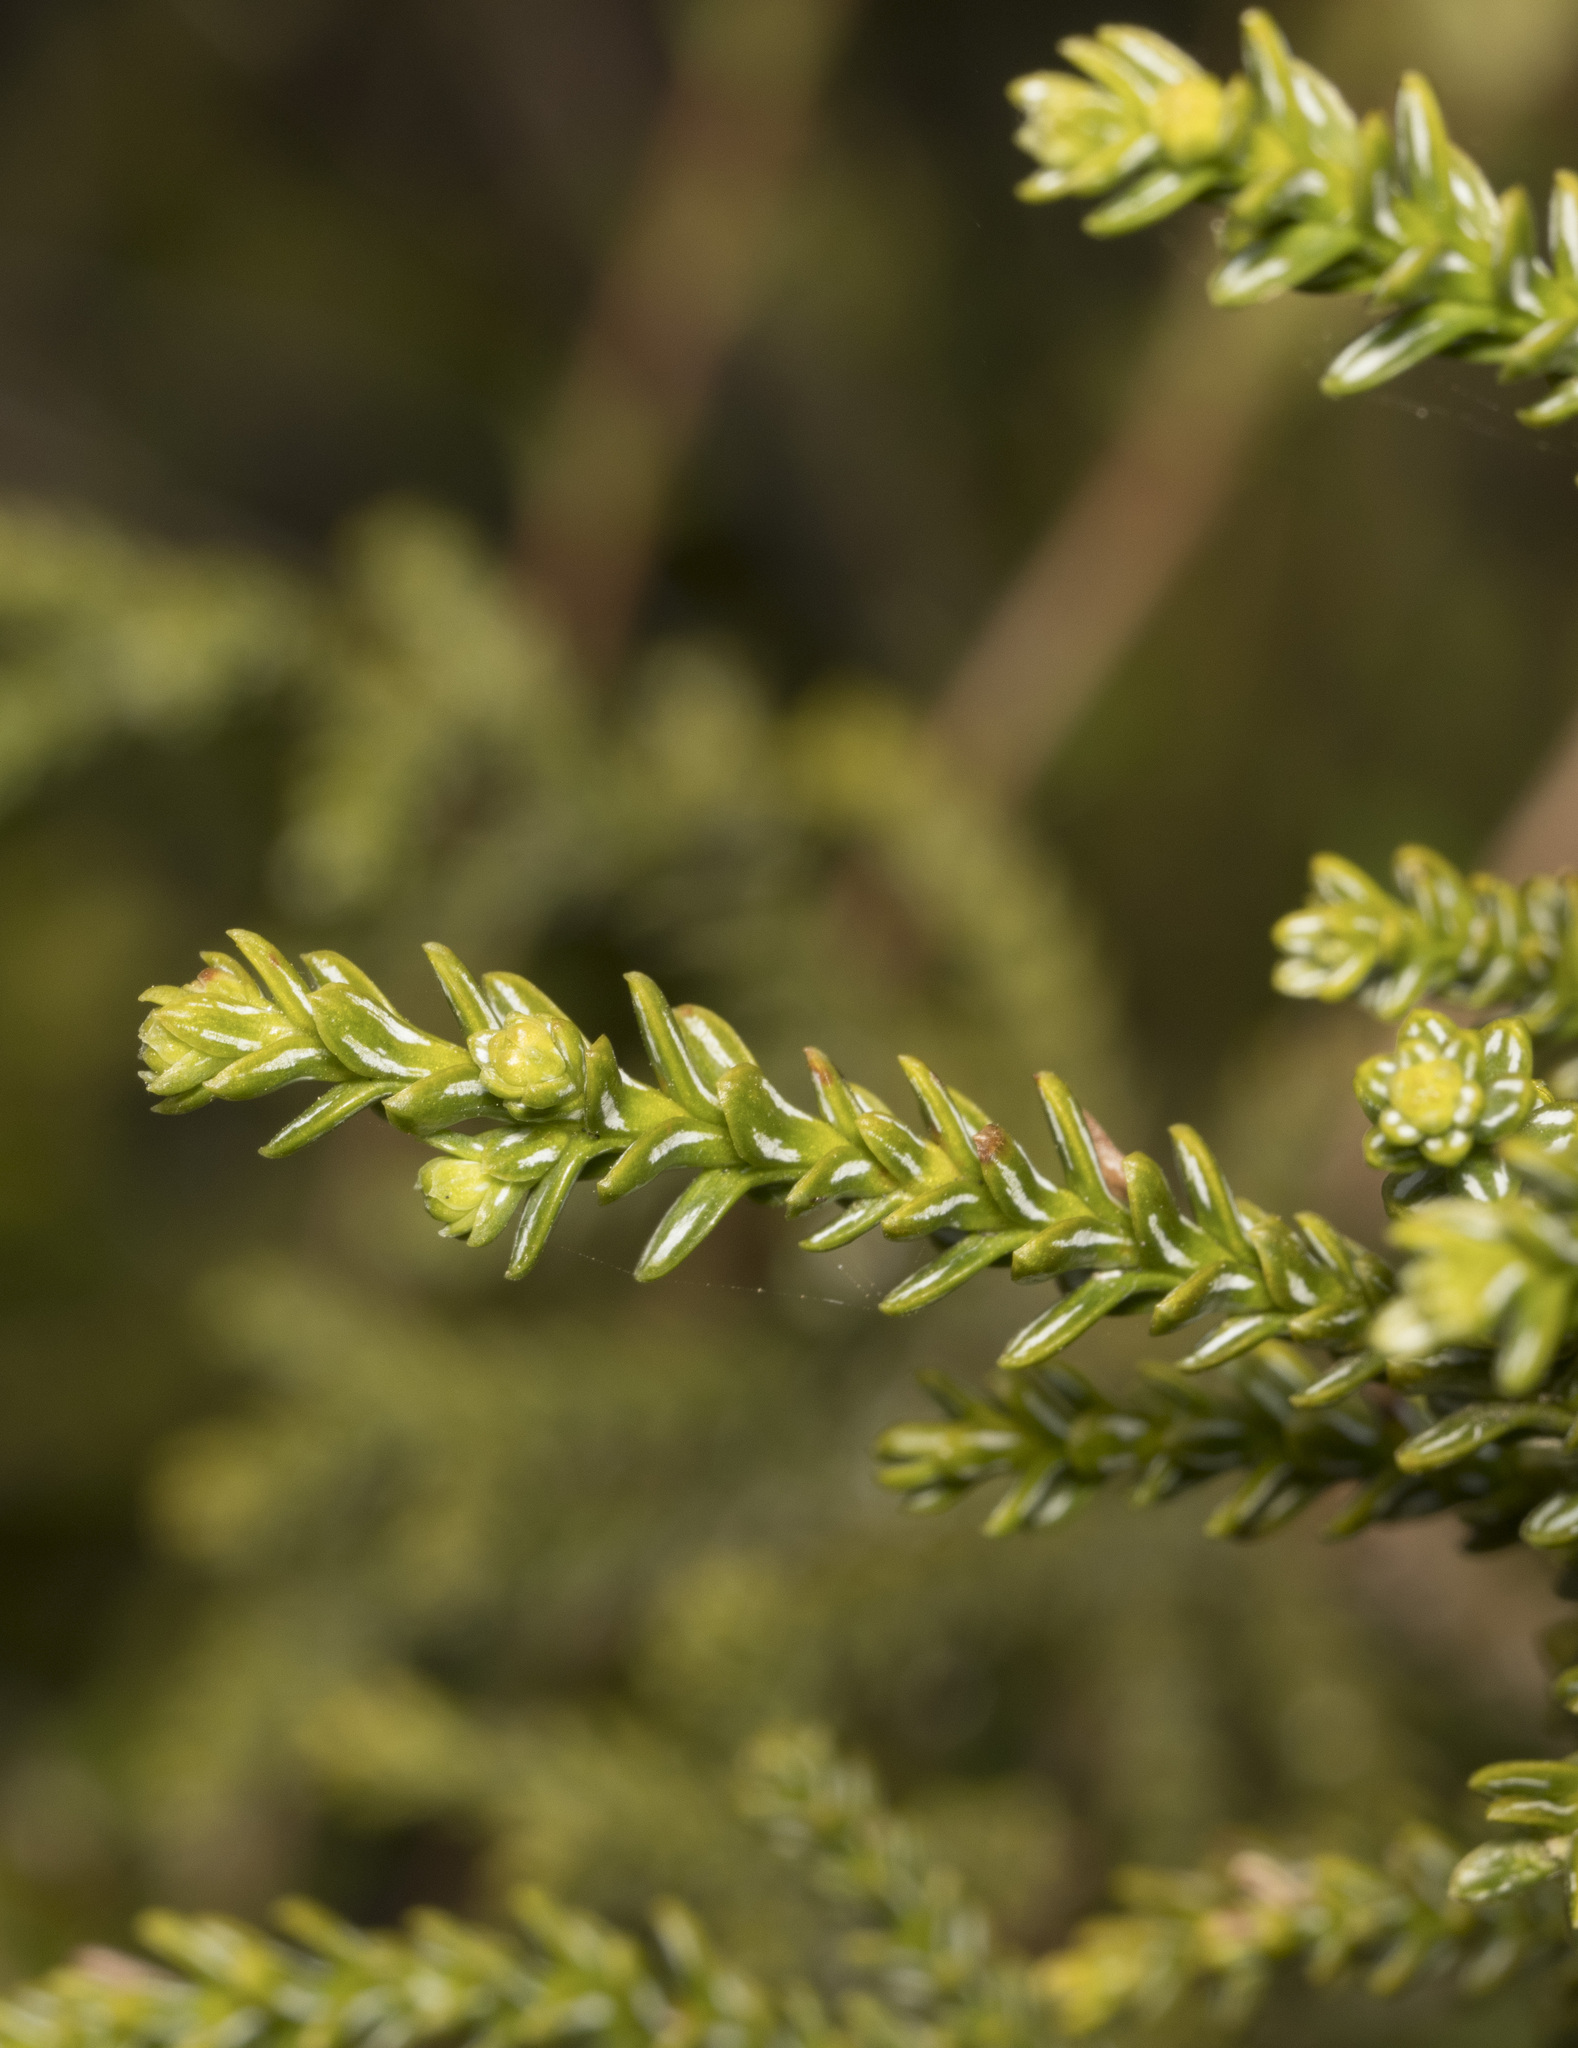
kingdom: Plantae
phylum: Tracheophyta
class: Pinopsida
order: Pinales
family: Cupressaceae
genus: Fitzroya
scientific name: Fitzroya cupressoides
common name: Patagonian cypress
